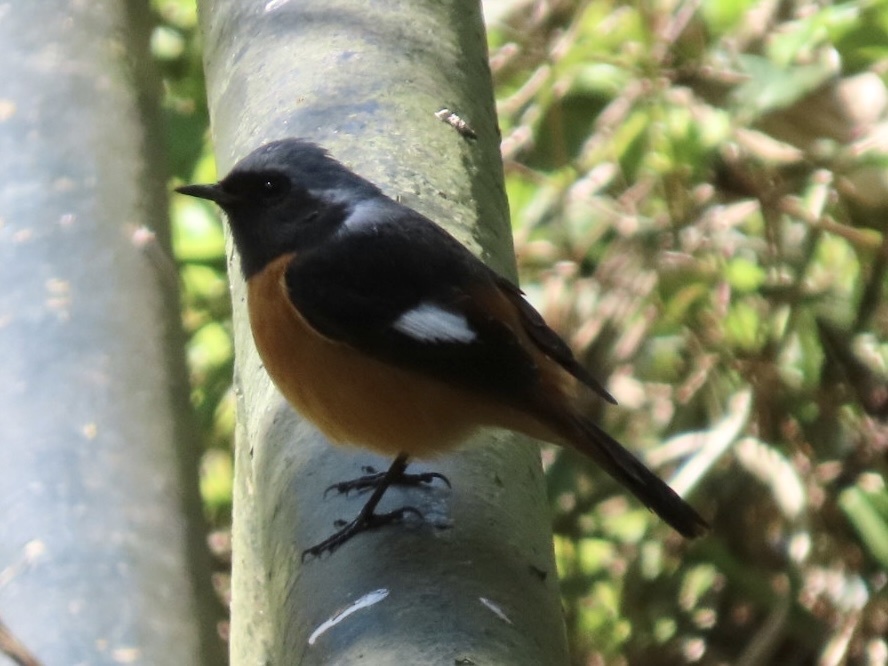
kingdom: Animalia
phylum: Chordata
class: Aves
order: Passeriformes
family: Muscicapidae
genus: Phoenicurus
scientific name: Phoenicurus auroreus
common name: Daurian redstart
